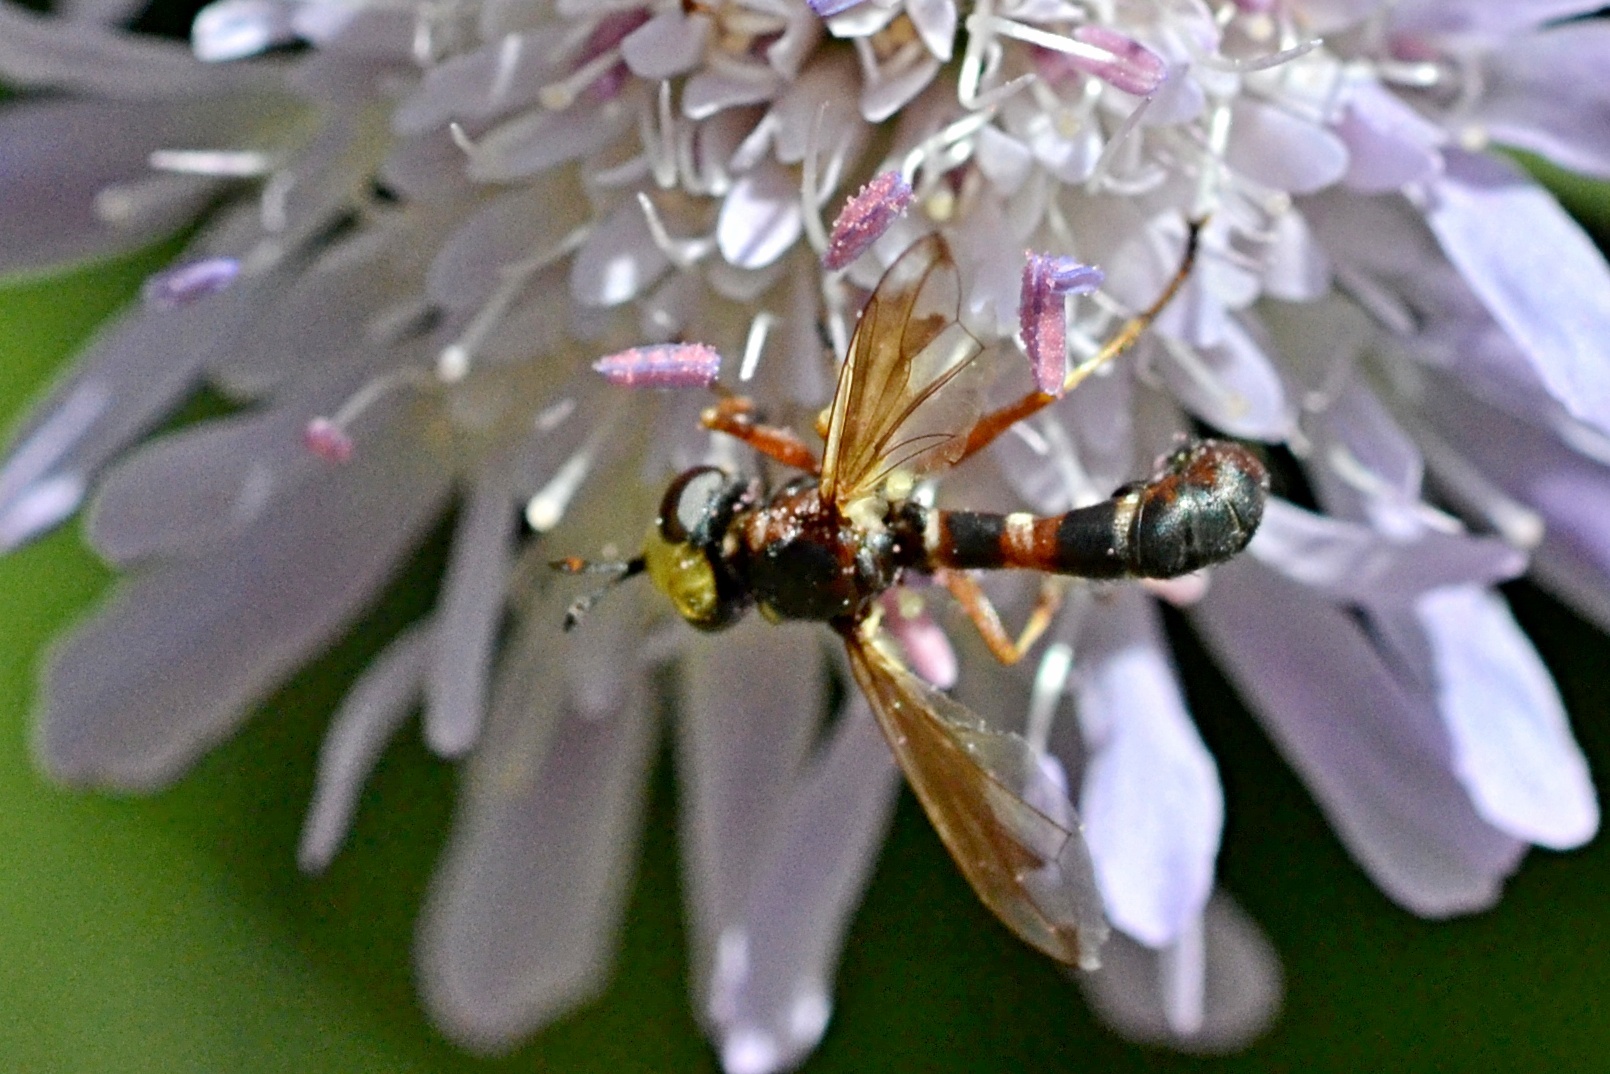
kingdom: Animalia
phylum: Arthropoda
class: Insecta
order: Diptera
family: Conopidae
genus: Physocephala
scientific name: Physocephala vittata
